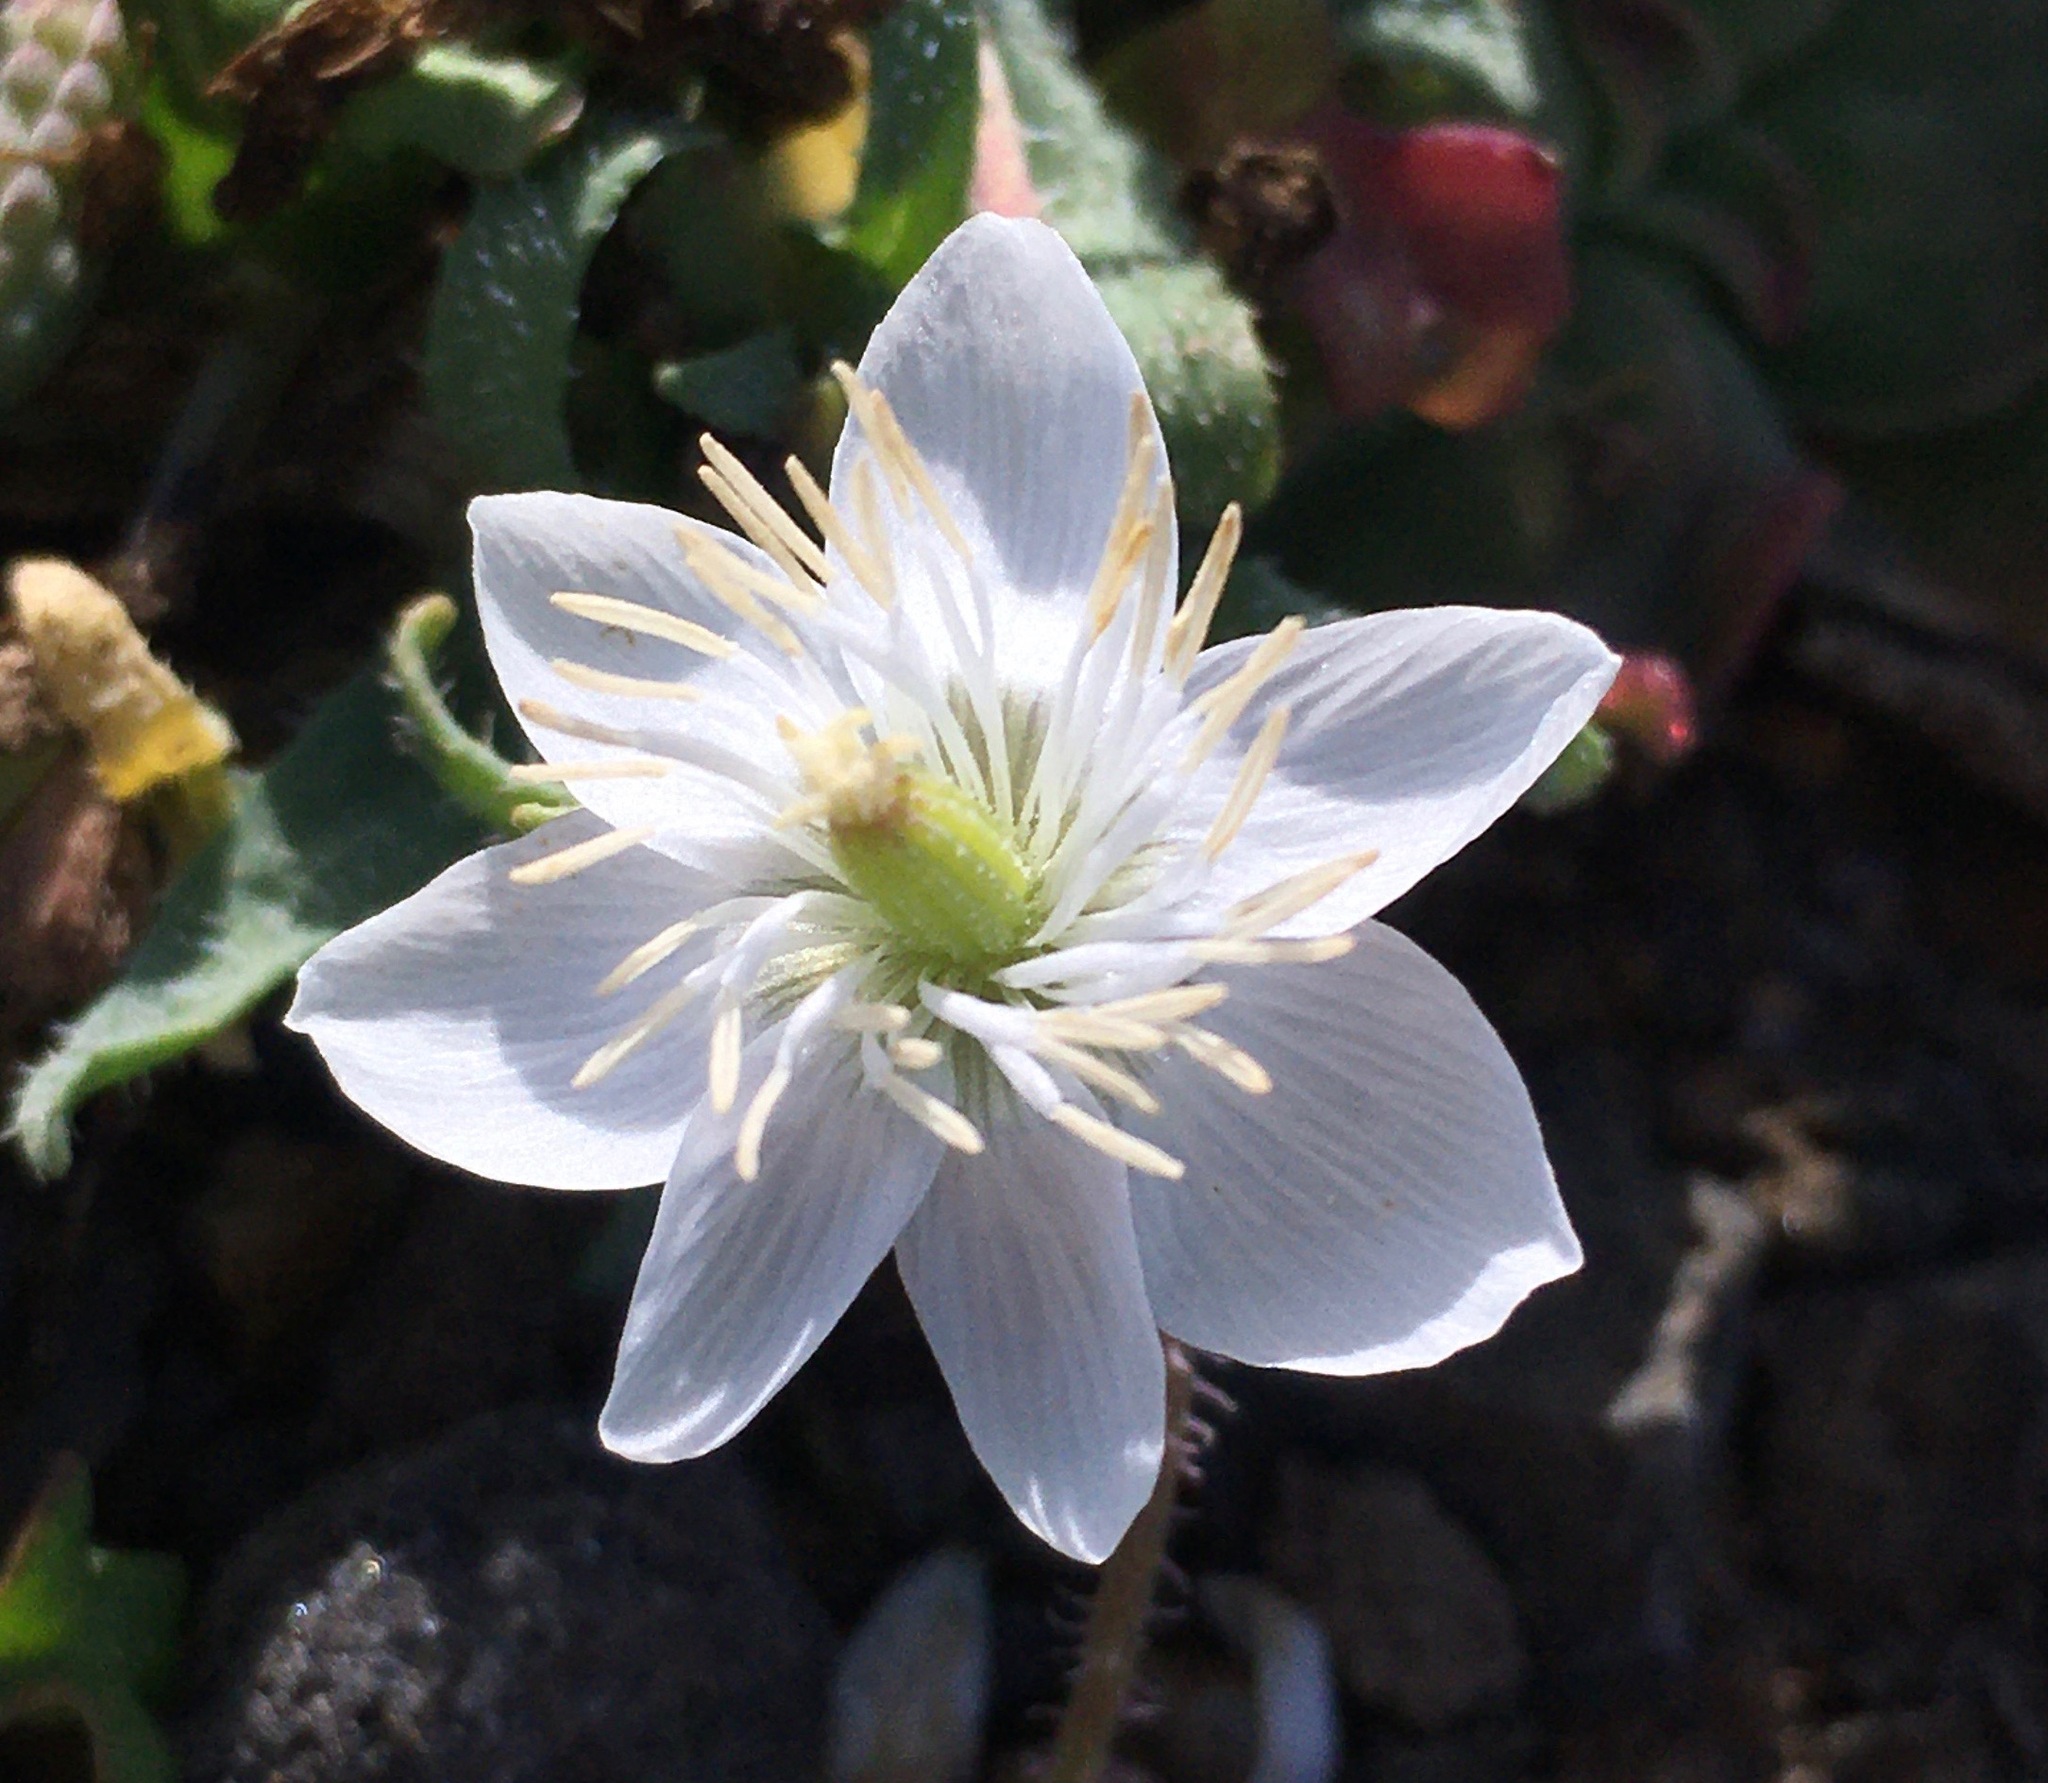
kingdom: Plantae
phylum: Tracheophyta
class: Magnoliopsida
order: Ranunculales
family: Papaveraceae
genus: Platystemon
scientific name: Platystemon californicus
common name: Cream-cups
